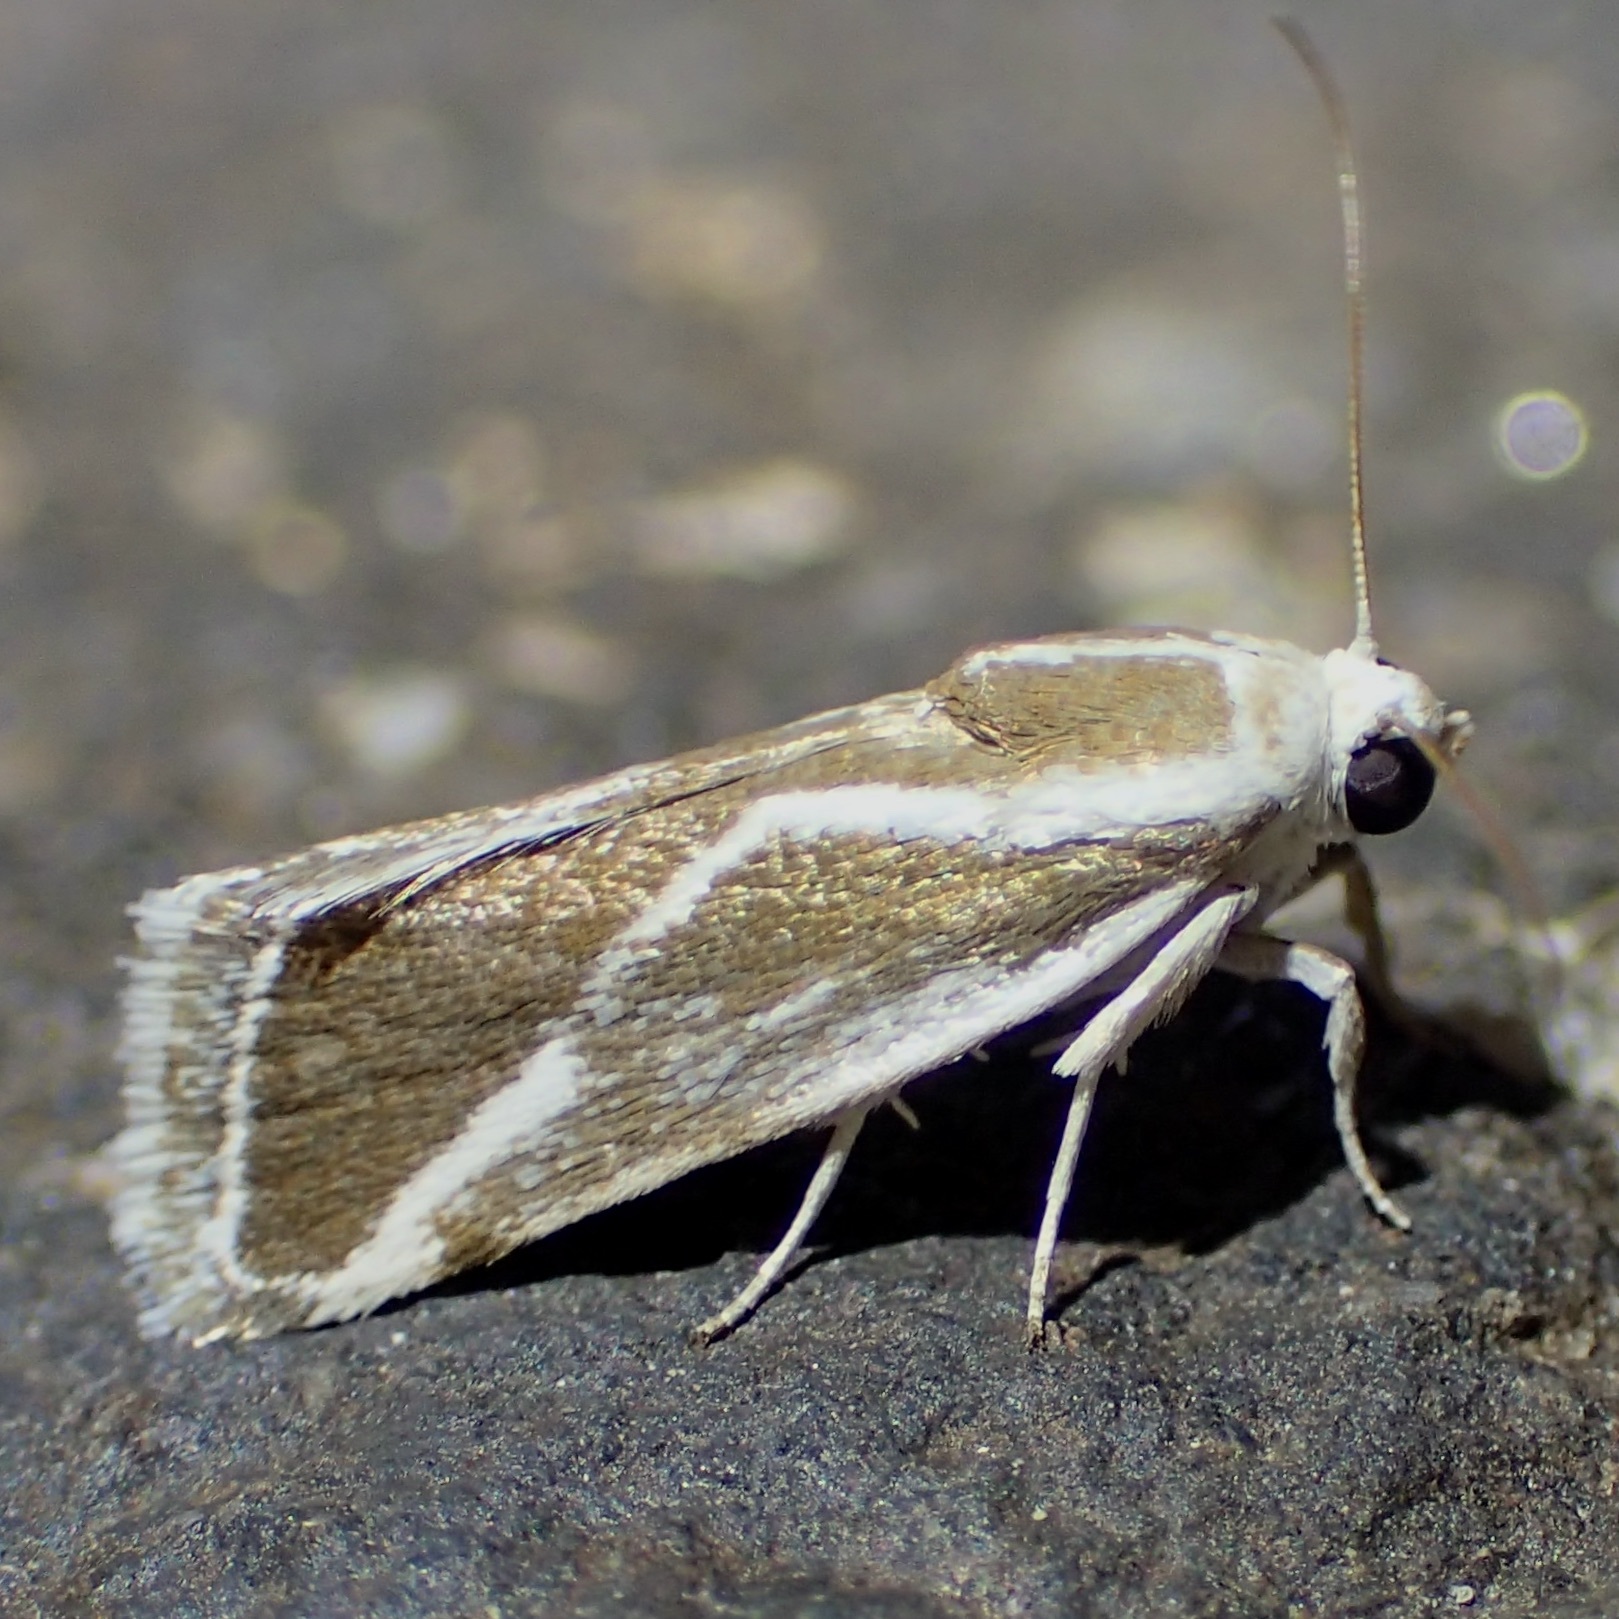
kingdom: Animalia
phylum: Arthropoda
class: Insecta
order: Lepidoptera
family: Noctuidae
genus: Acontia
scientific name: Acontia alata
